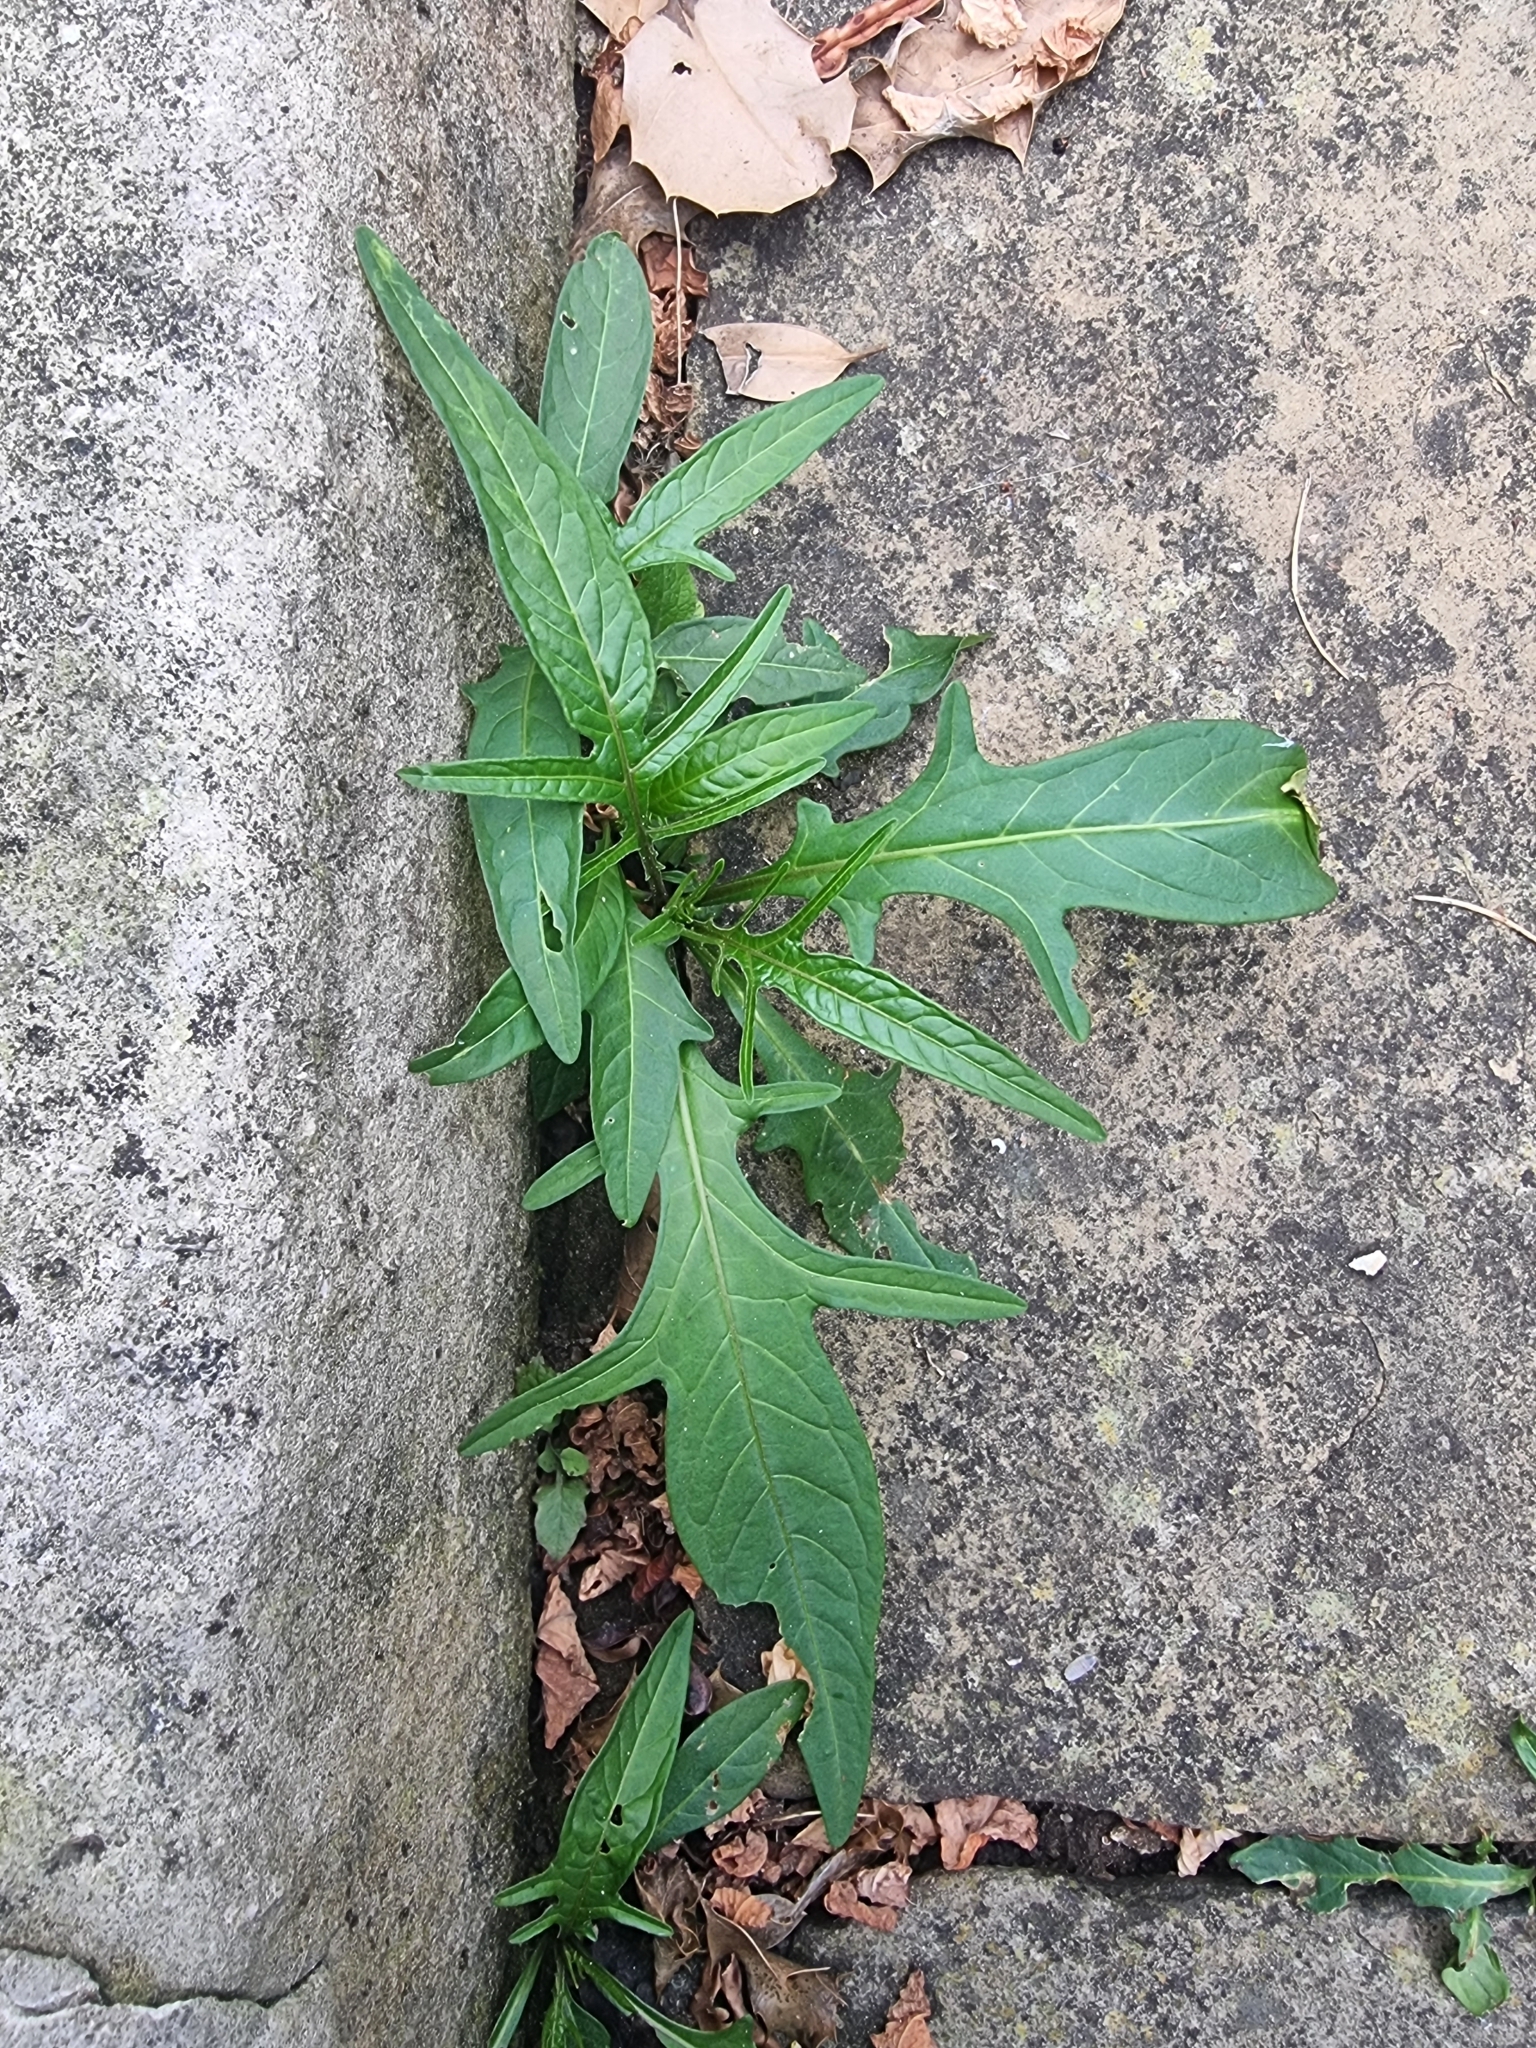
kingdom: Plantae
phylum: Tracheophyta
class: Magnoliopsida
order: Solanales
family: Solanaceae
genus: Solanum
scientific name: Solanum laciniatum
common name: Kangaroo-apple
